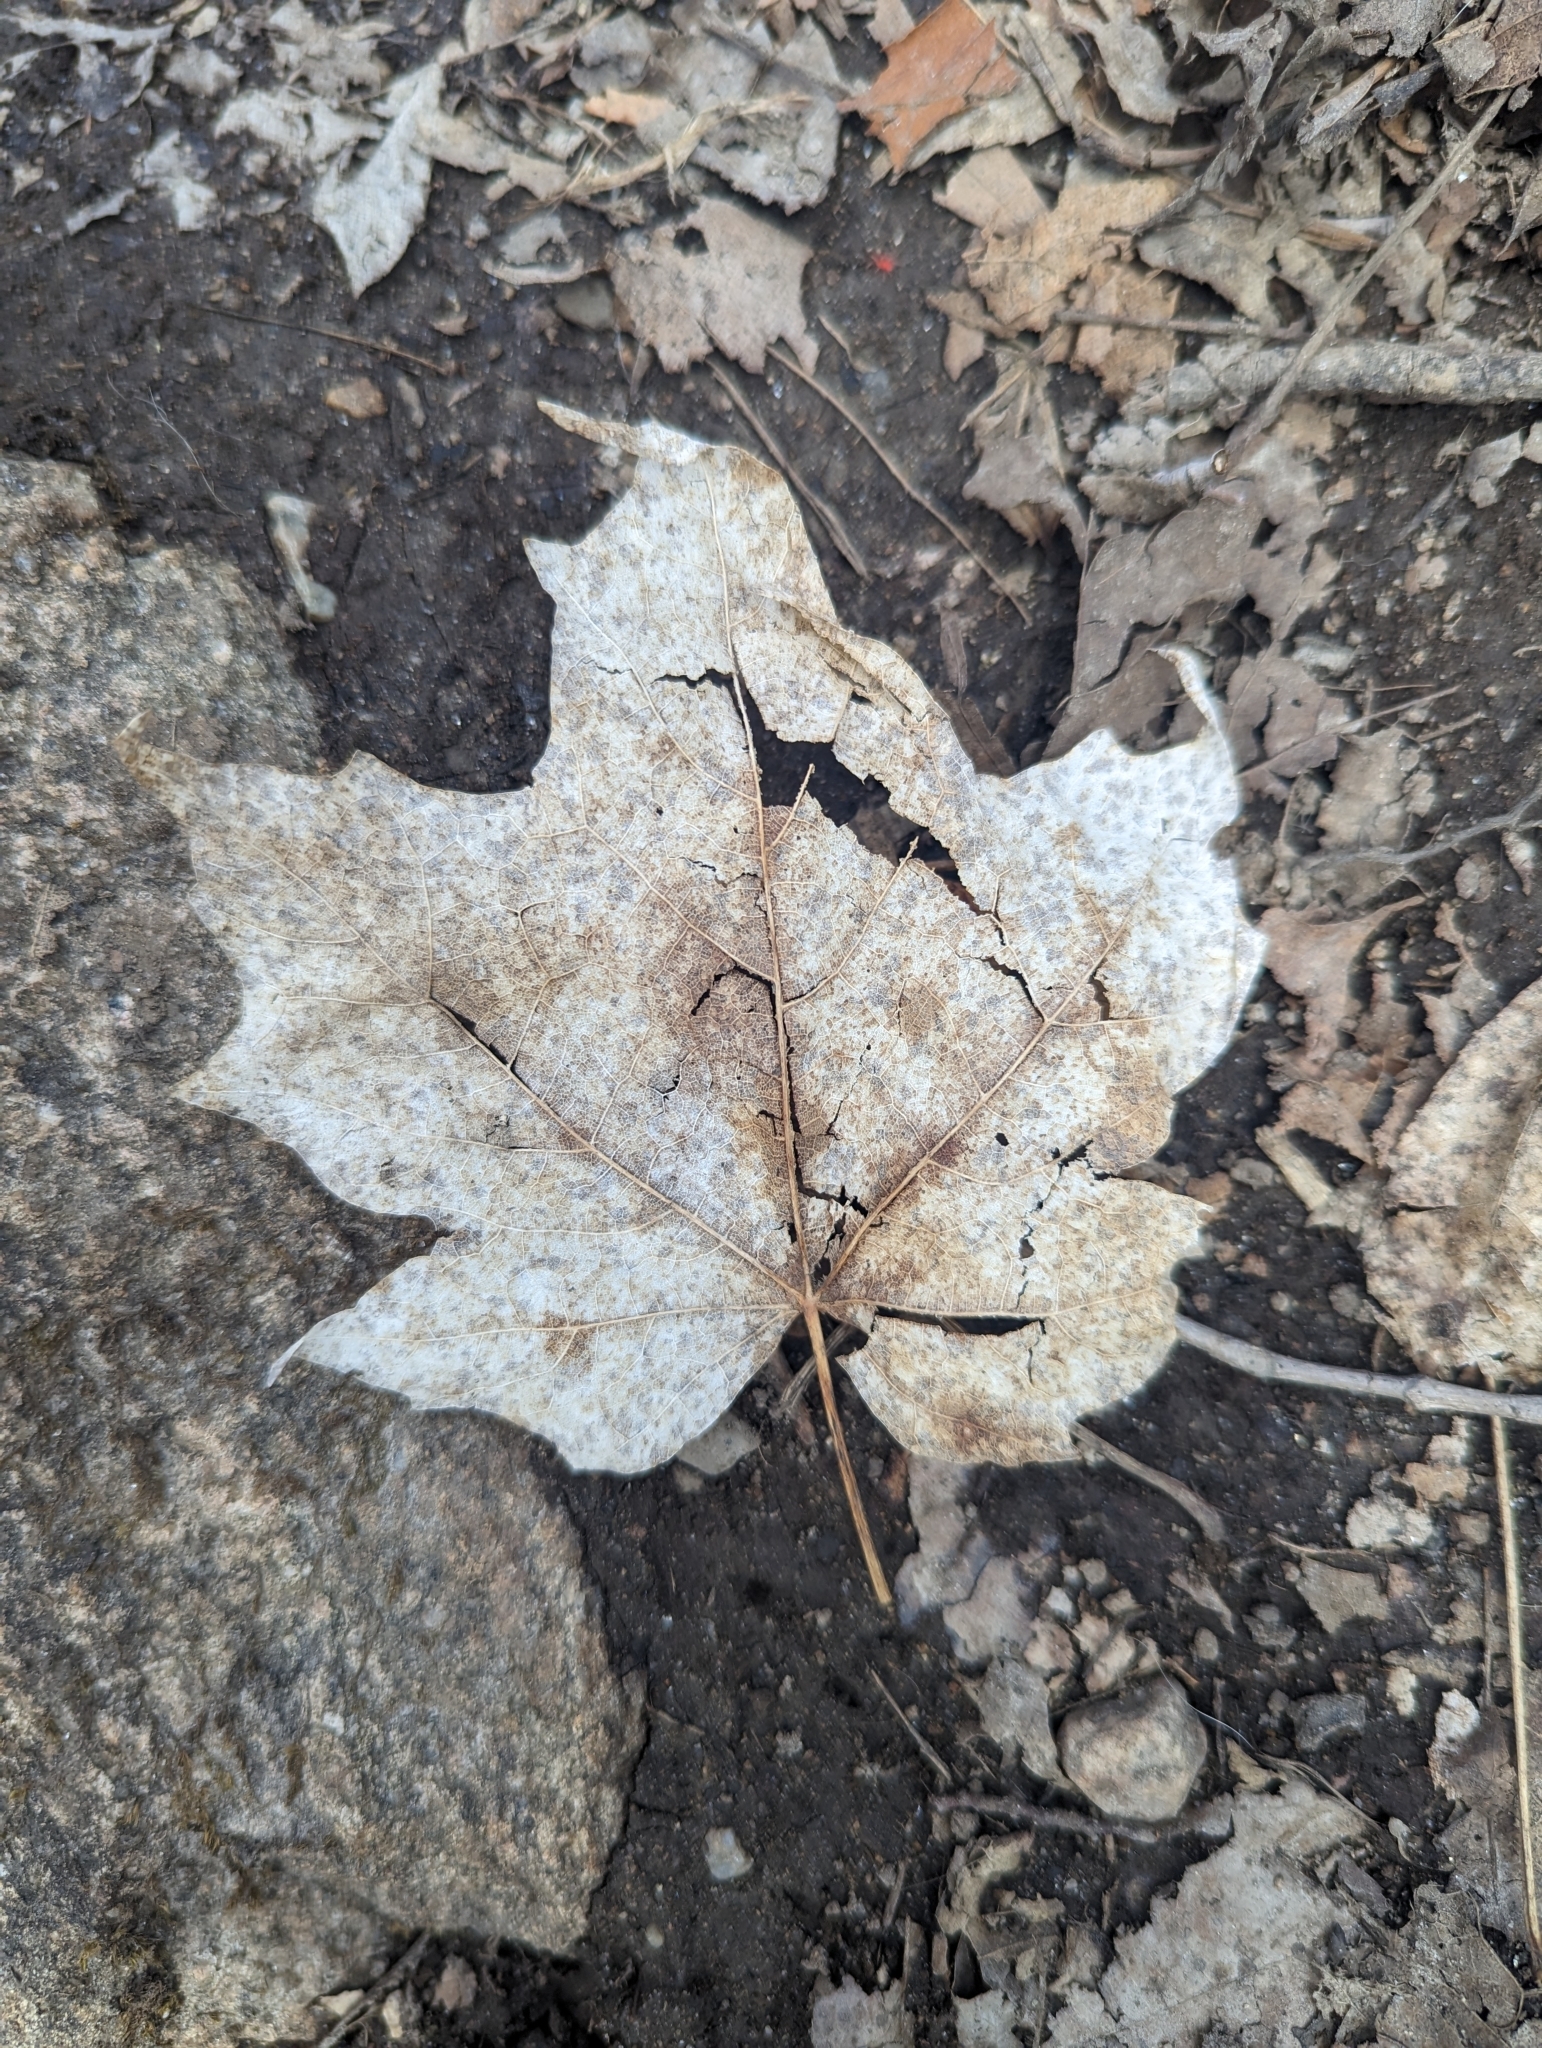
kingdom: Plantae
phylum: Tracheophyta
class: Magnoliopsida
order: Sapindales
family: Sapindaceae
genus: Acer
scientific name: Acer saccharum
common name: Sugar maple
